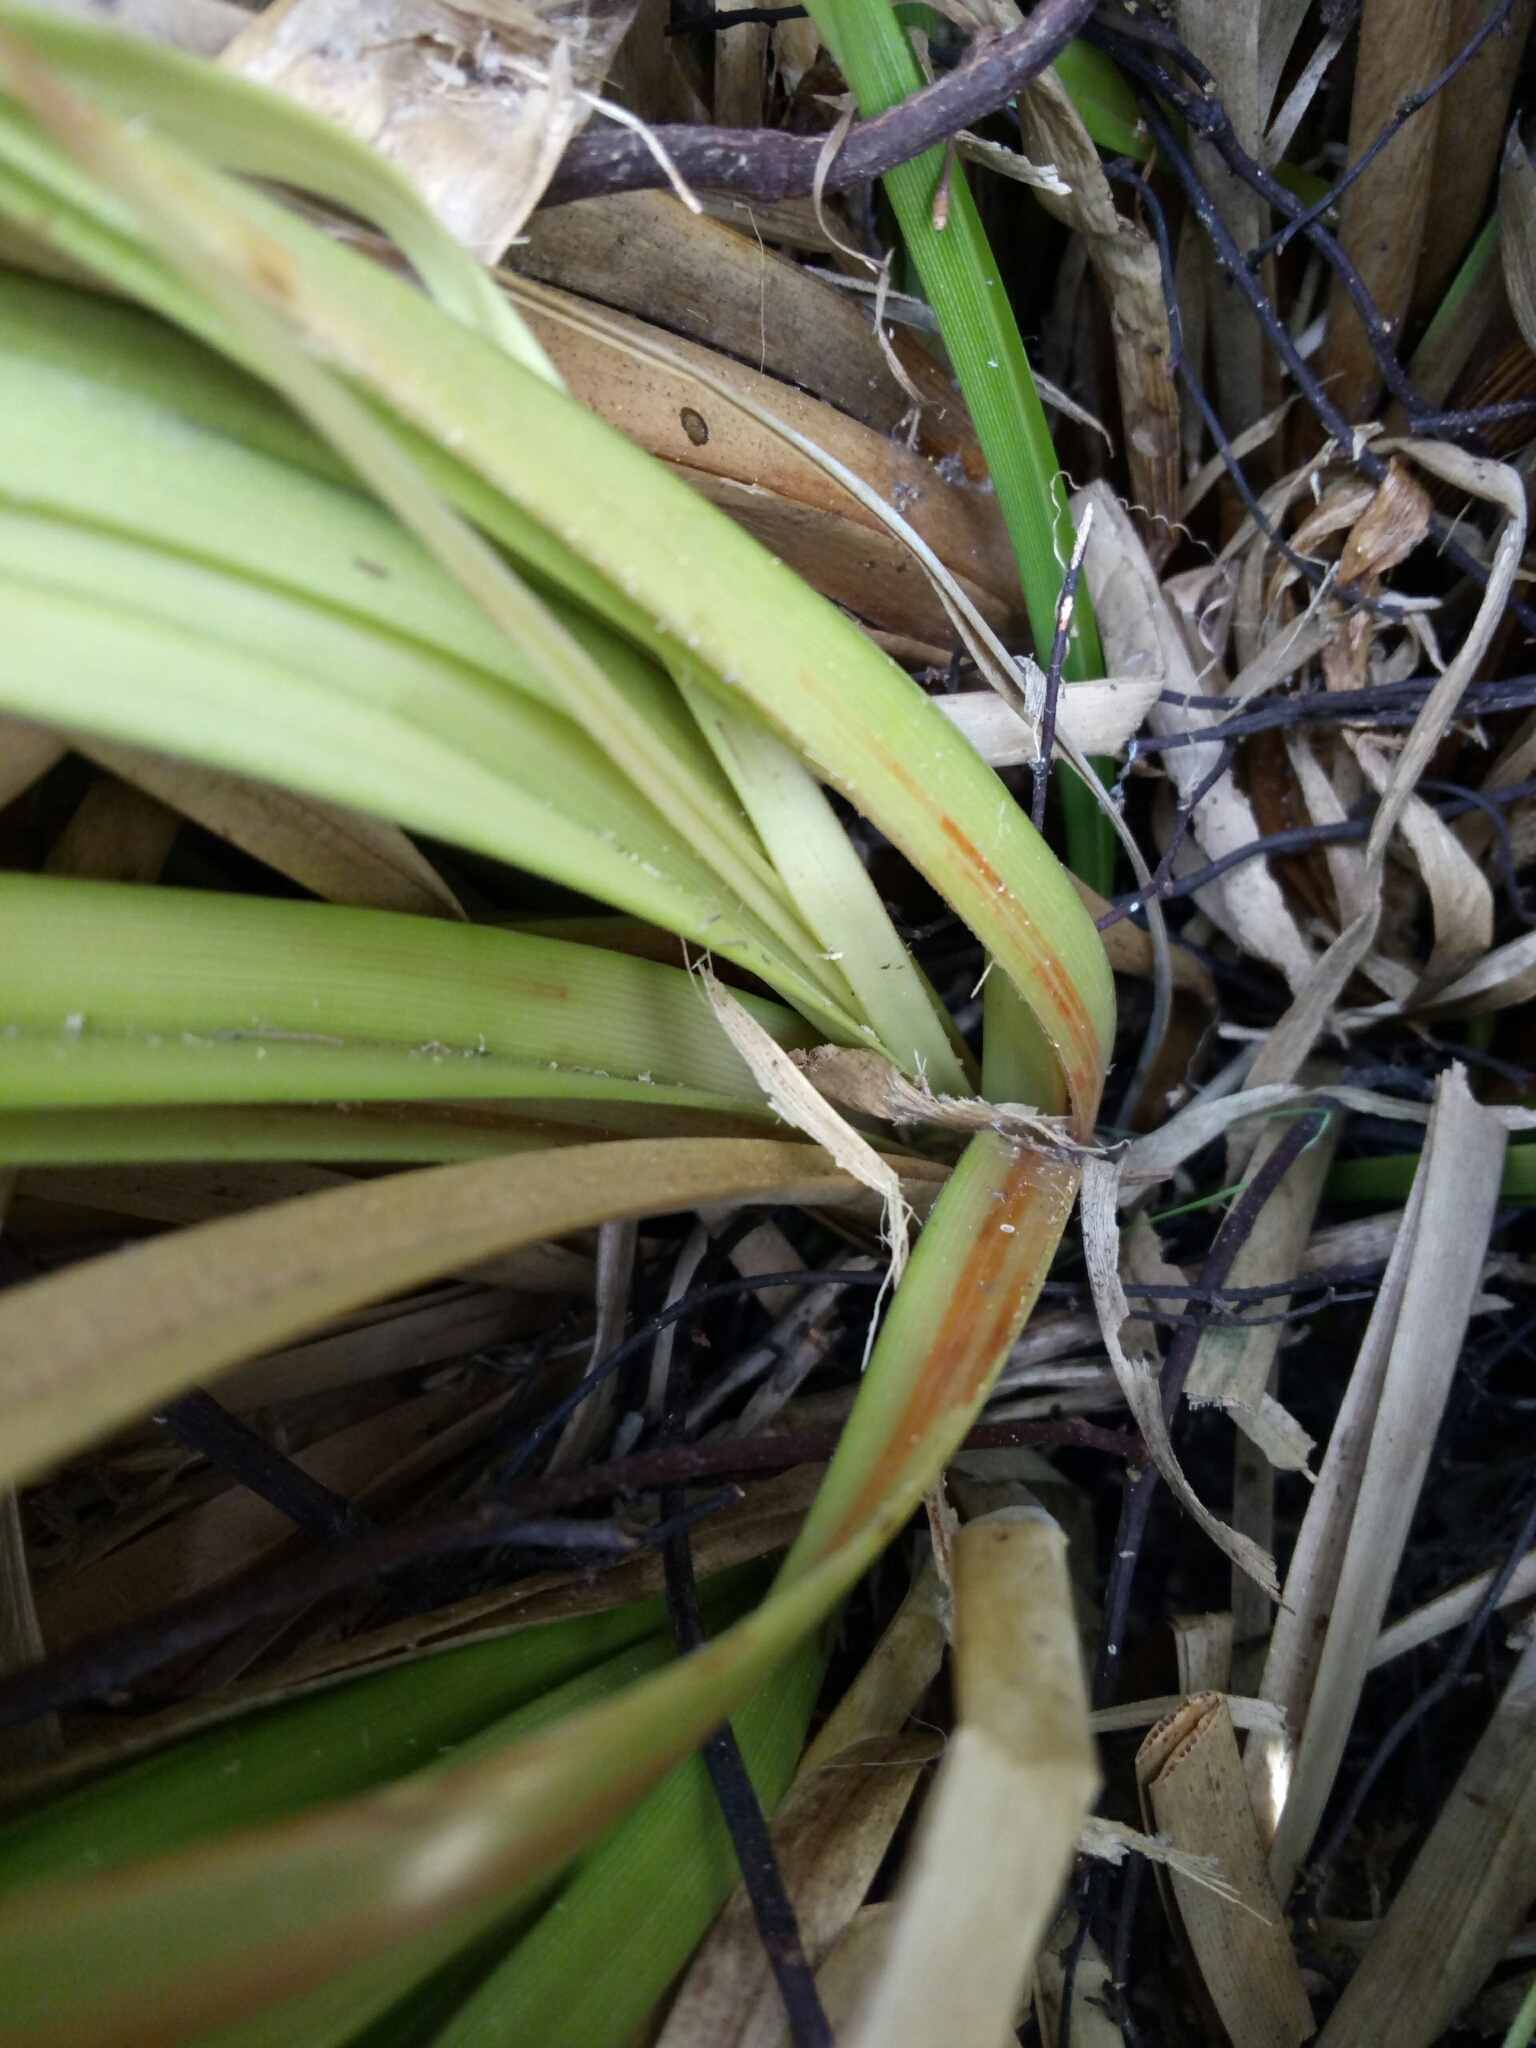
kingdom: Plantae
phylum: Tracheophyta
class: Liliopsida
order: Poales
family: Cyperaceae
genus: Cyperus
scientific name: Cyperus ustulatus
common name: Giant umbrella-sedge
